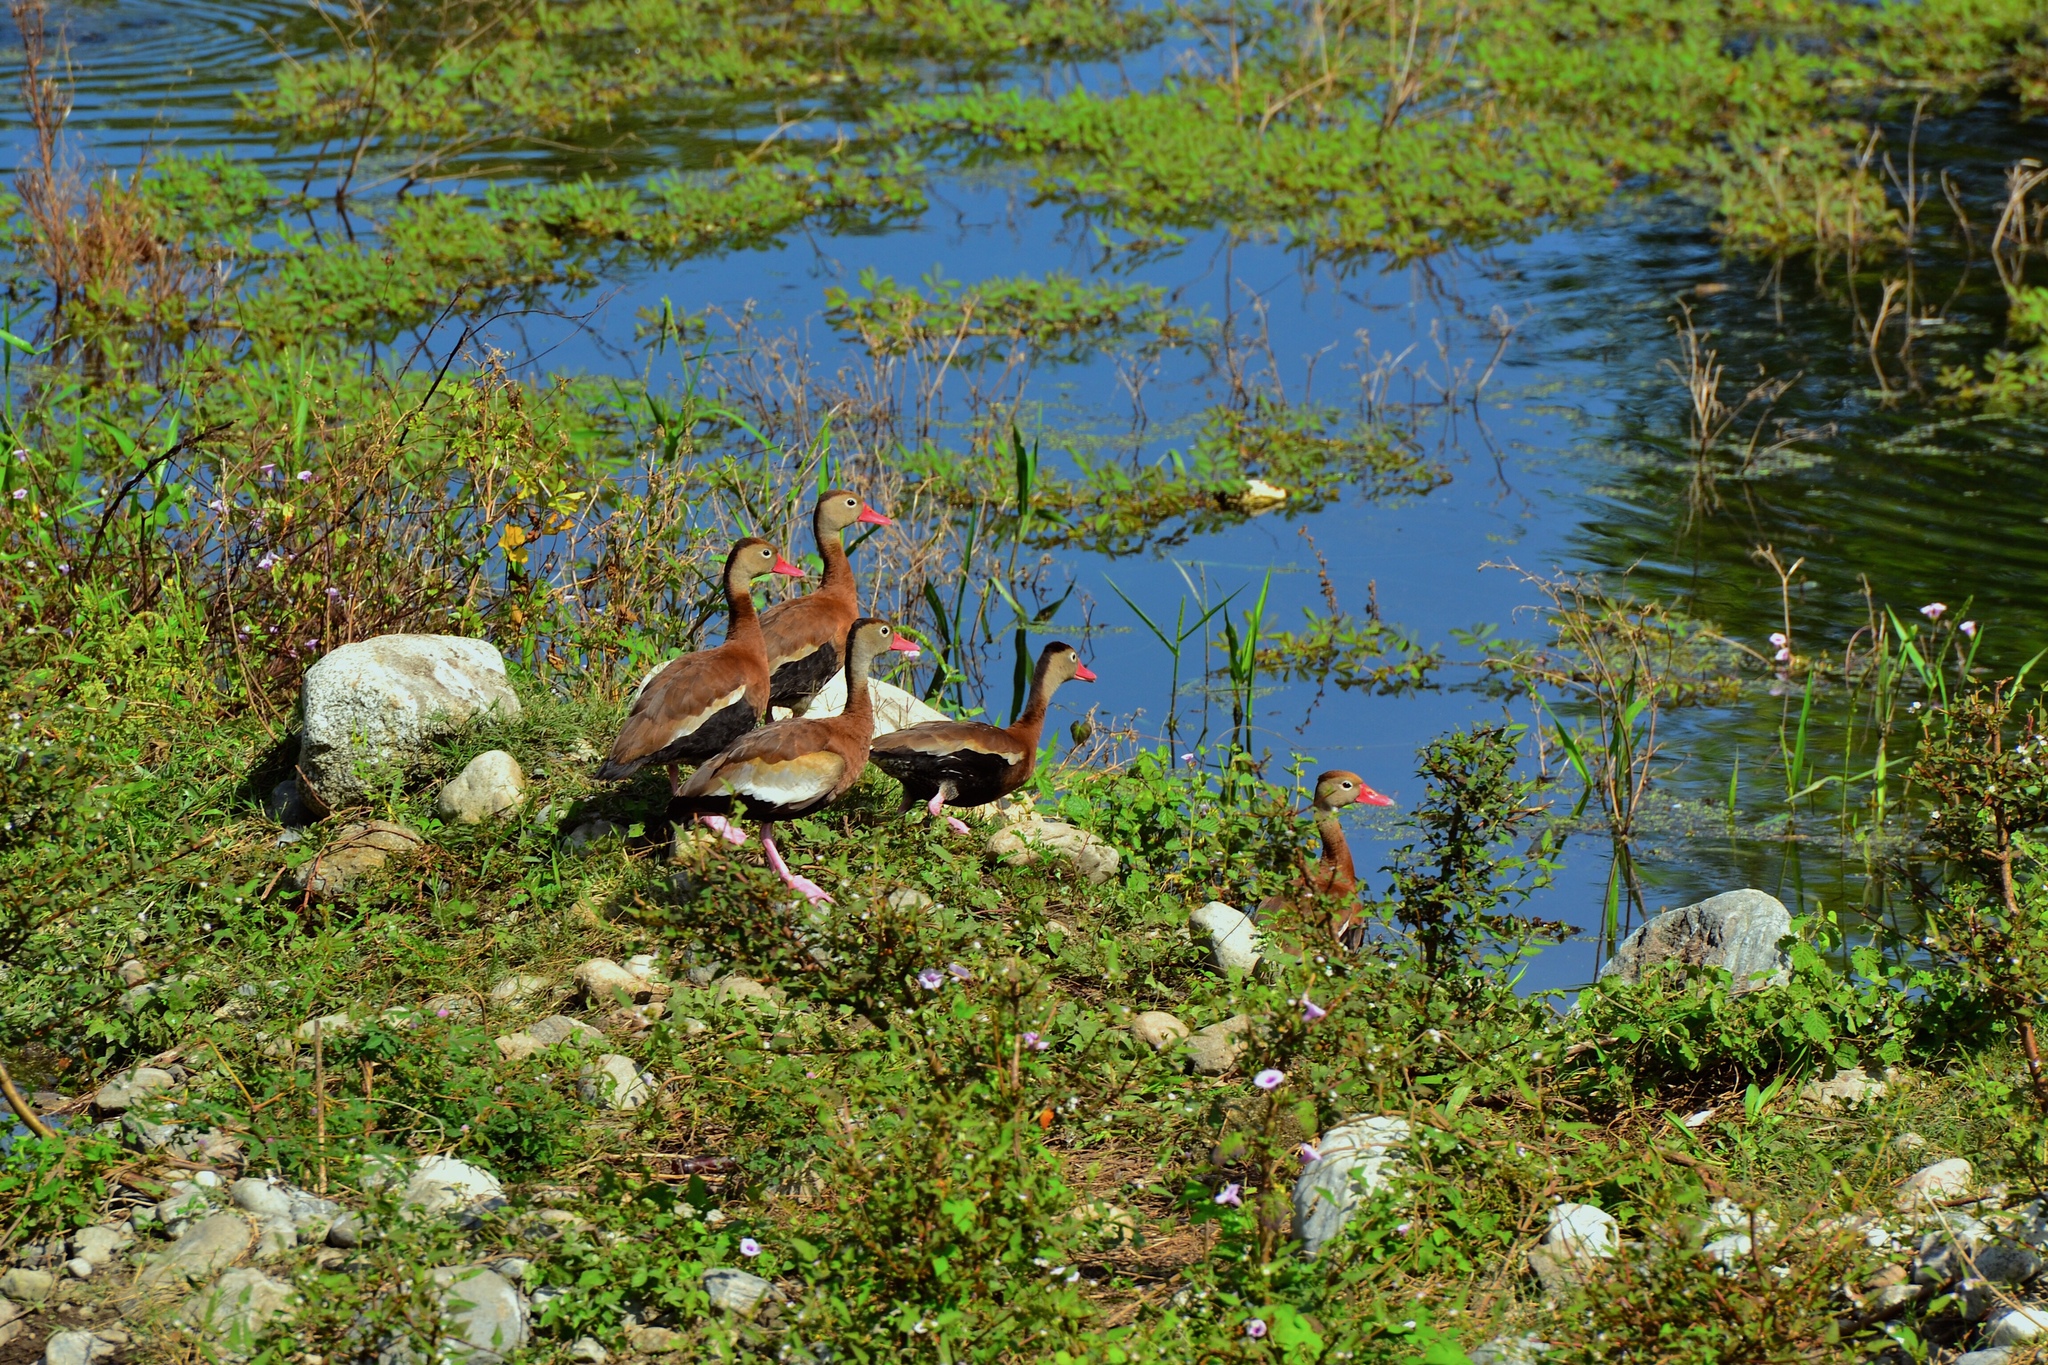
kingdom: Animalia
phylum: Chordata
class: Aves
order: Anseriformes
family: Anatidae
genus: Dendrocygna
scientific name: Dendrocygna autumnalis
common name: Black-bellied whistling duck
